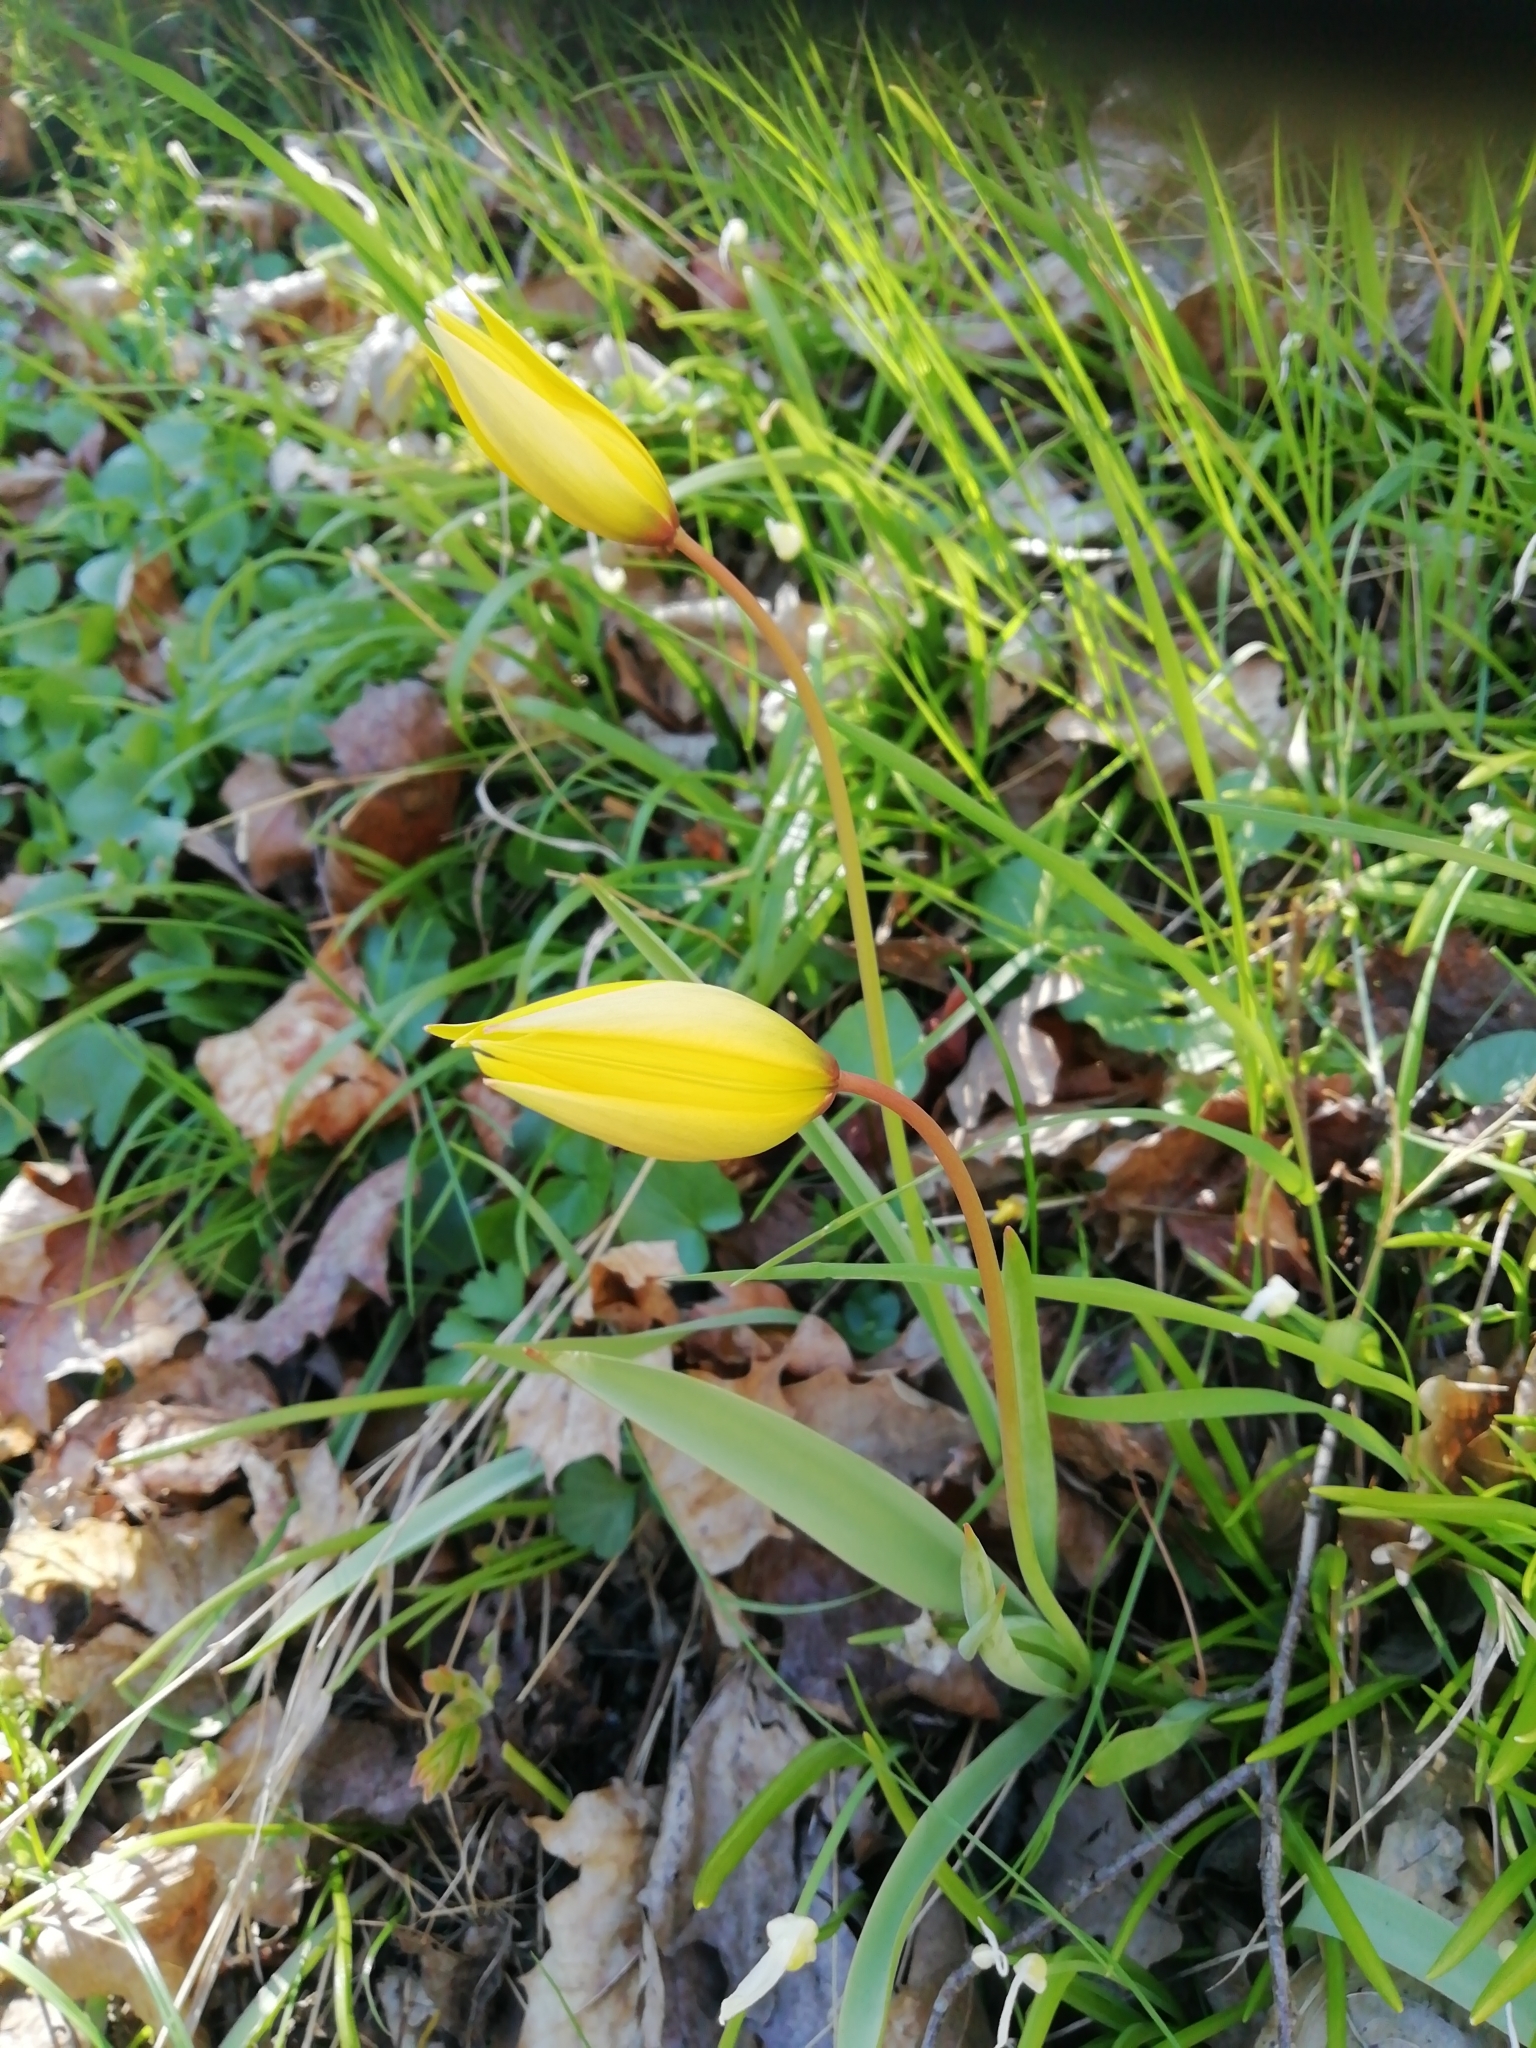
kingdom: Plantae
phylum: Tracheophyta
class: Liliopsida
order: Liliales
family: Liliaceae
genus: Tulipa
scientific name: Tulipa sylvestris
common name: Wild tulip
